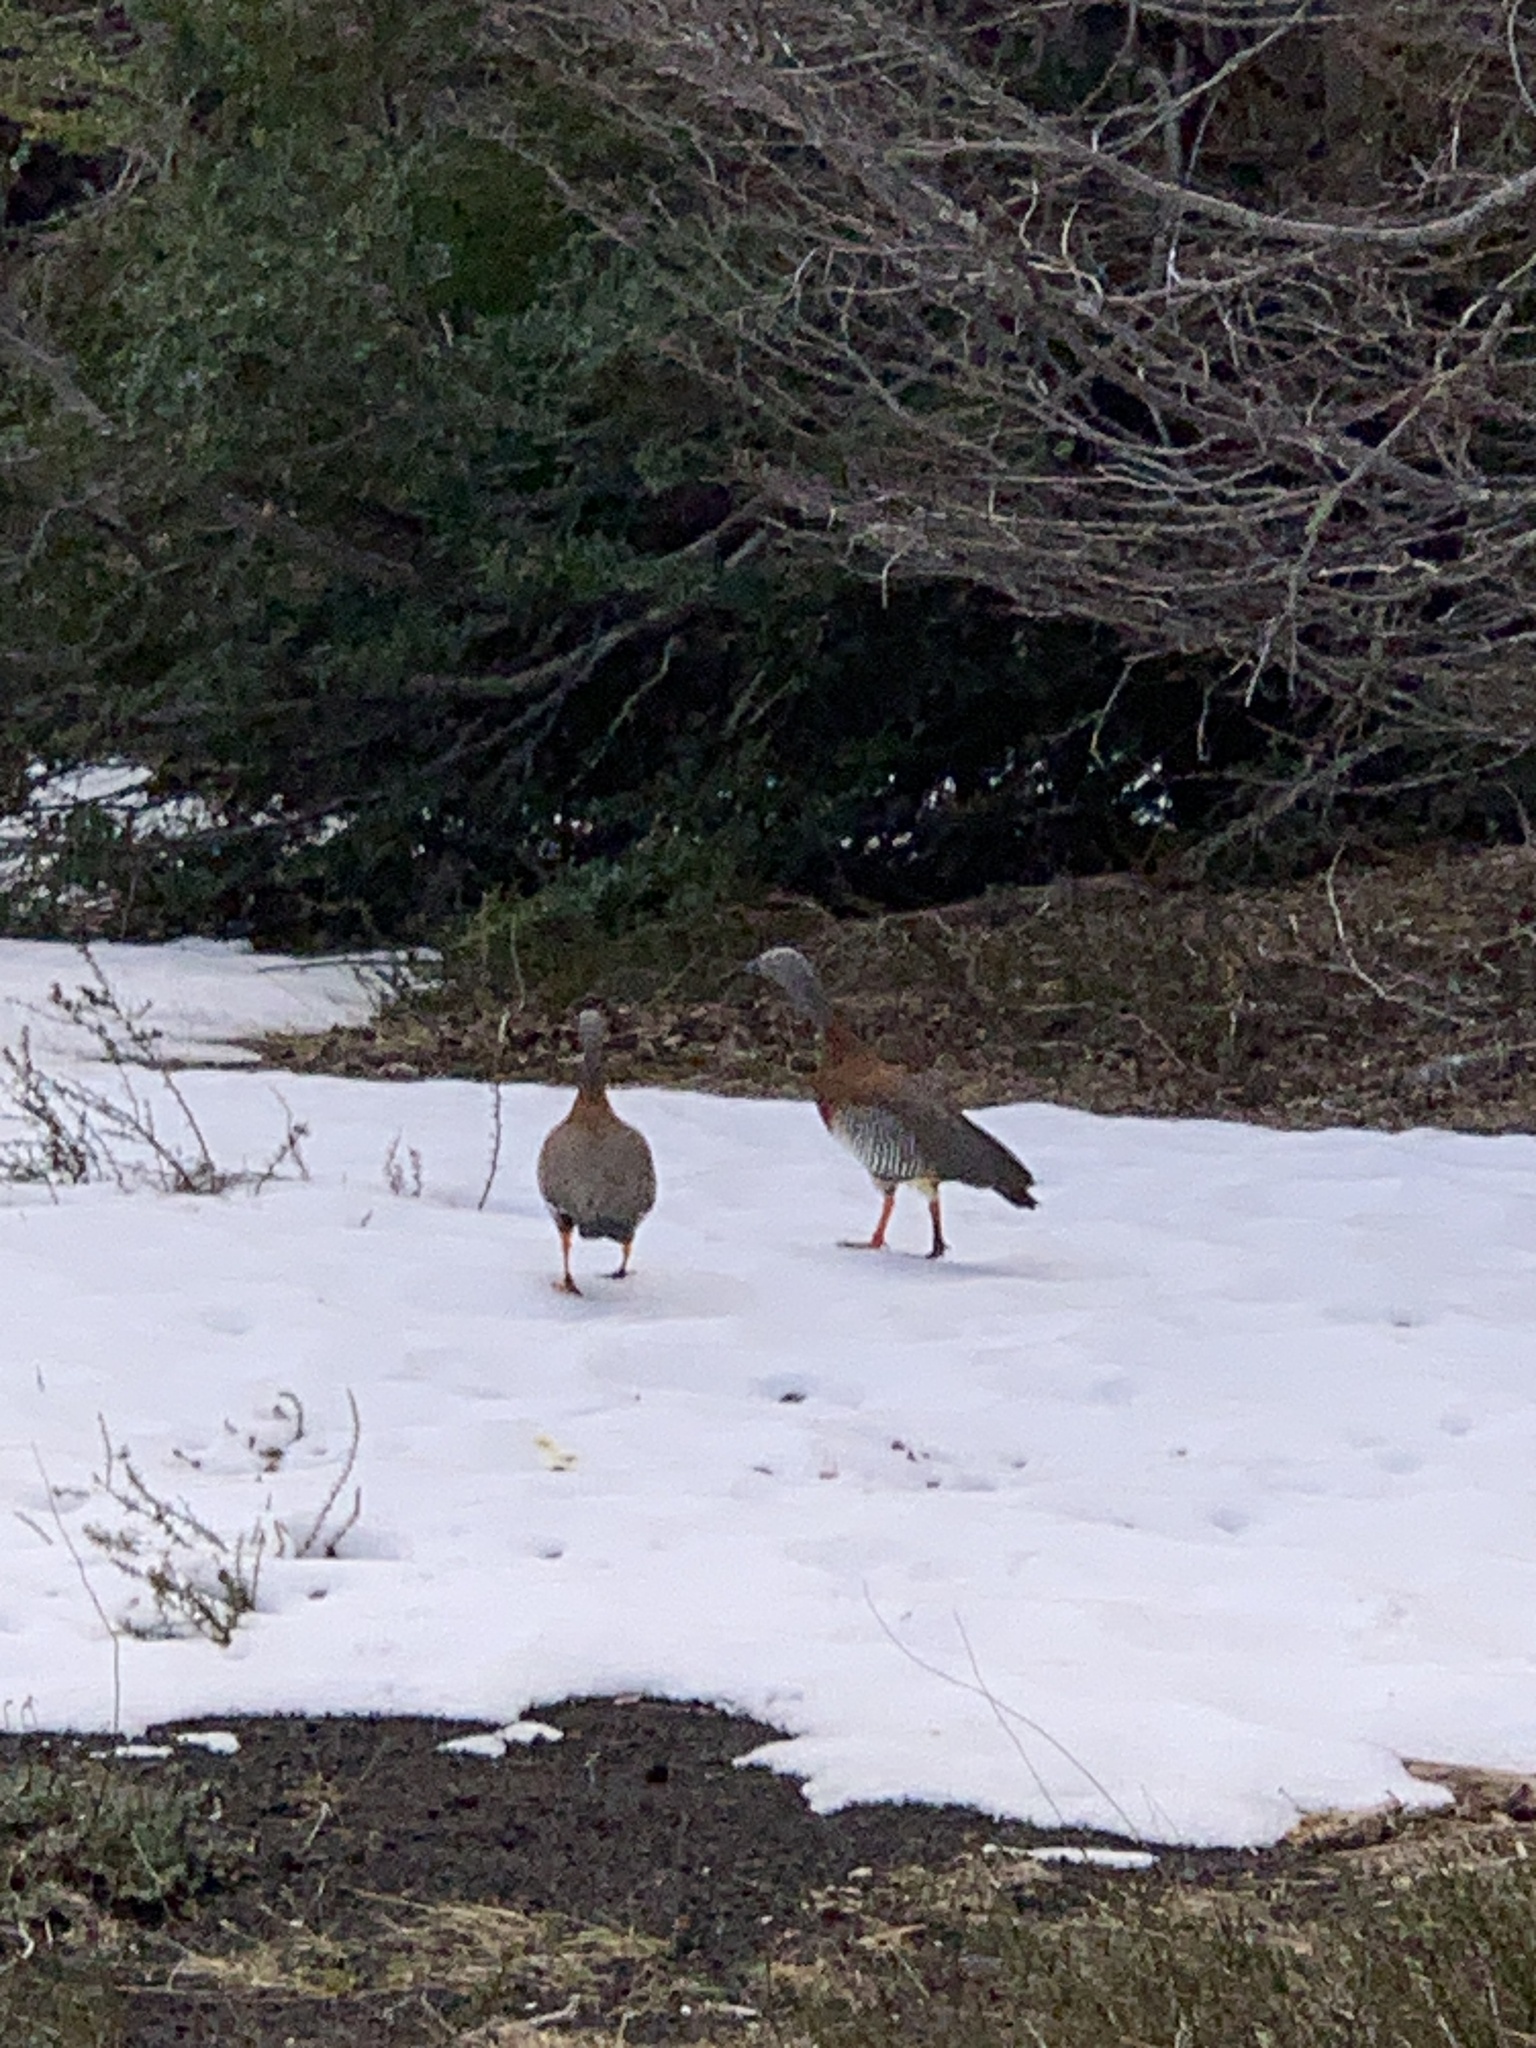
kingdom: Animalia
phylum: Chordata
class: Aves
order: Anseriformes
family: Anatidae
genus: Chloephaga
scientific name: Chloephaga poliocephala
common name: Ashy-headed goose
